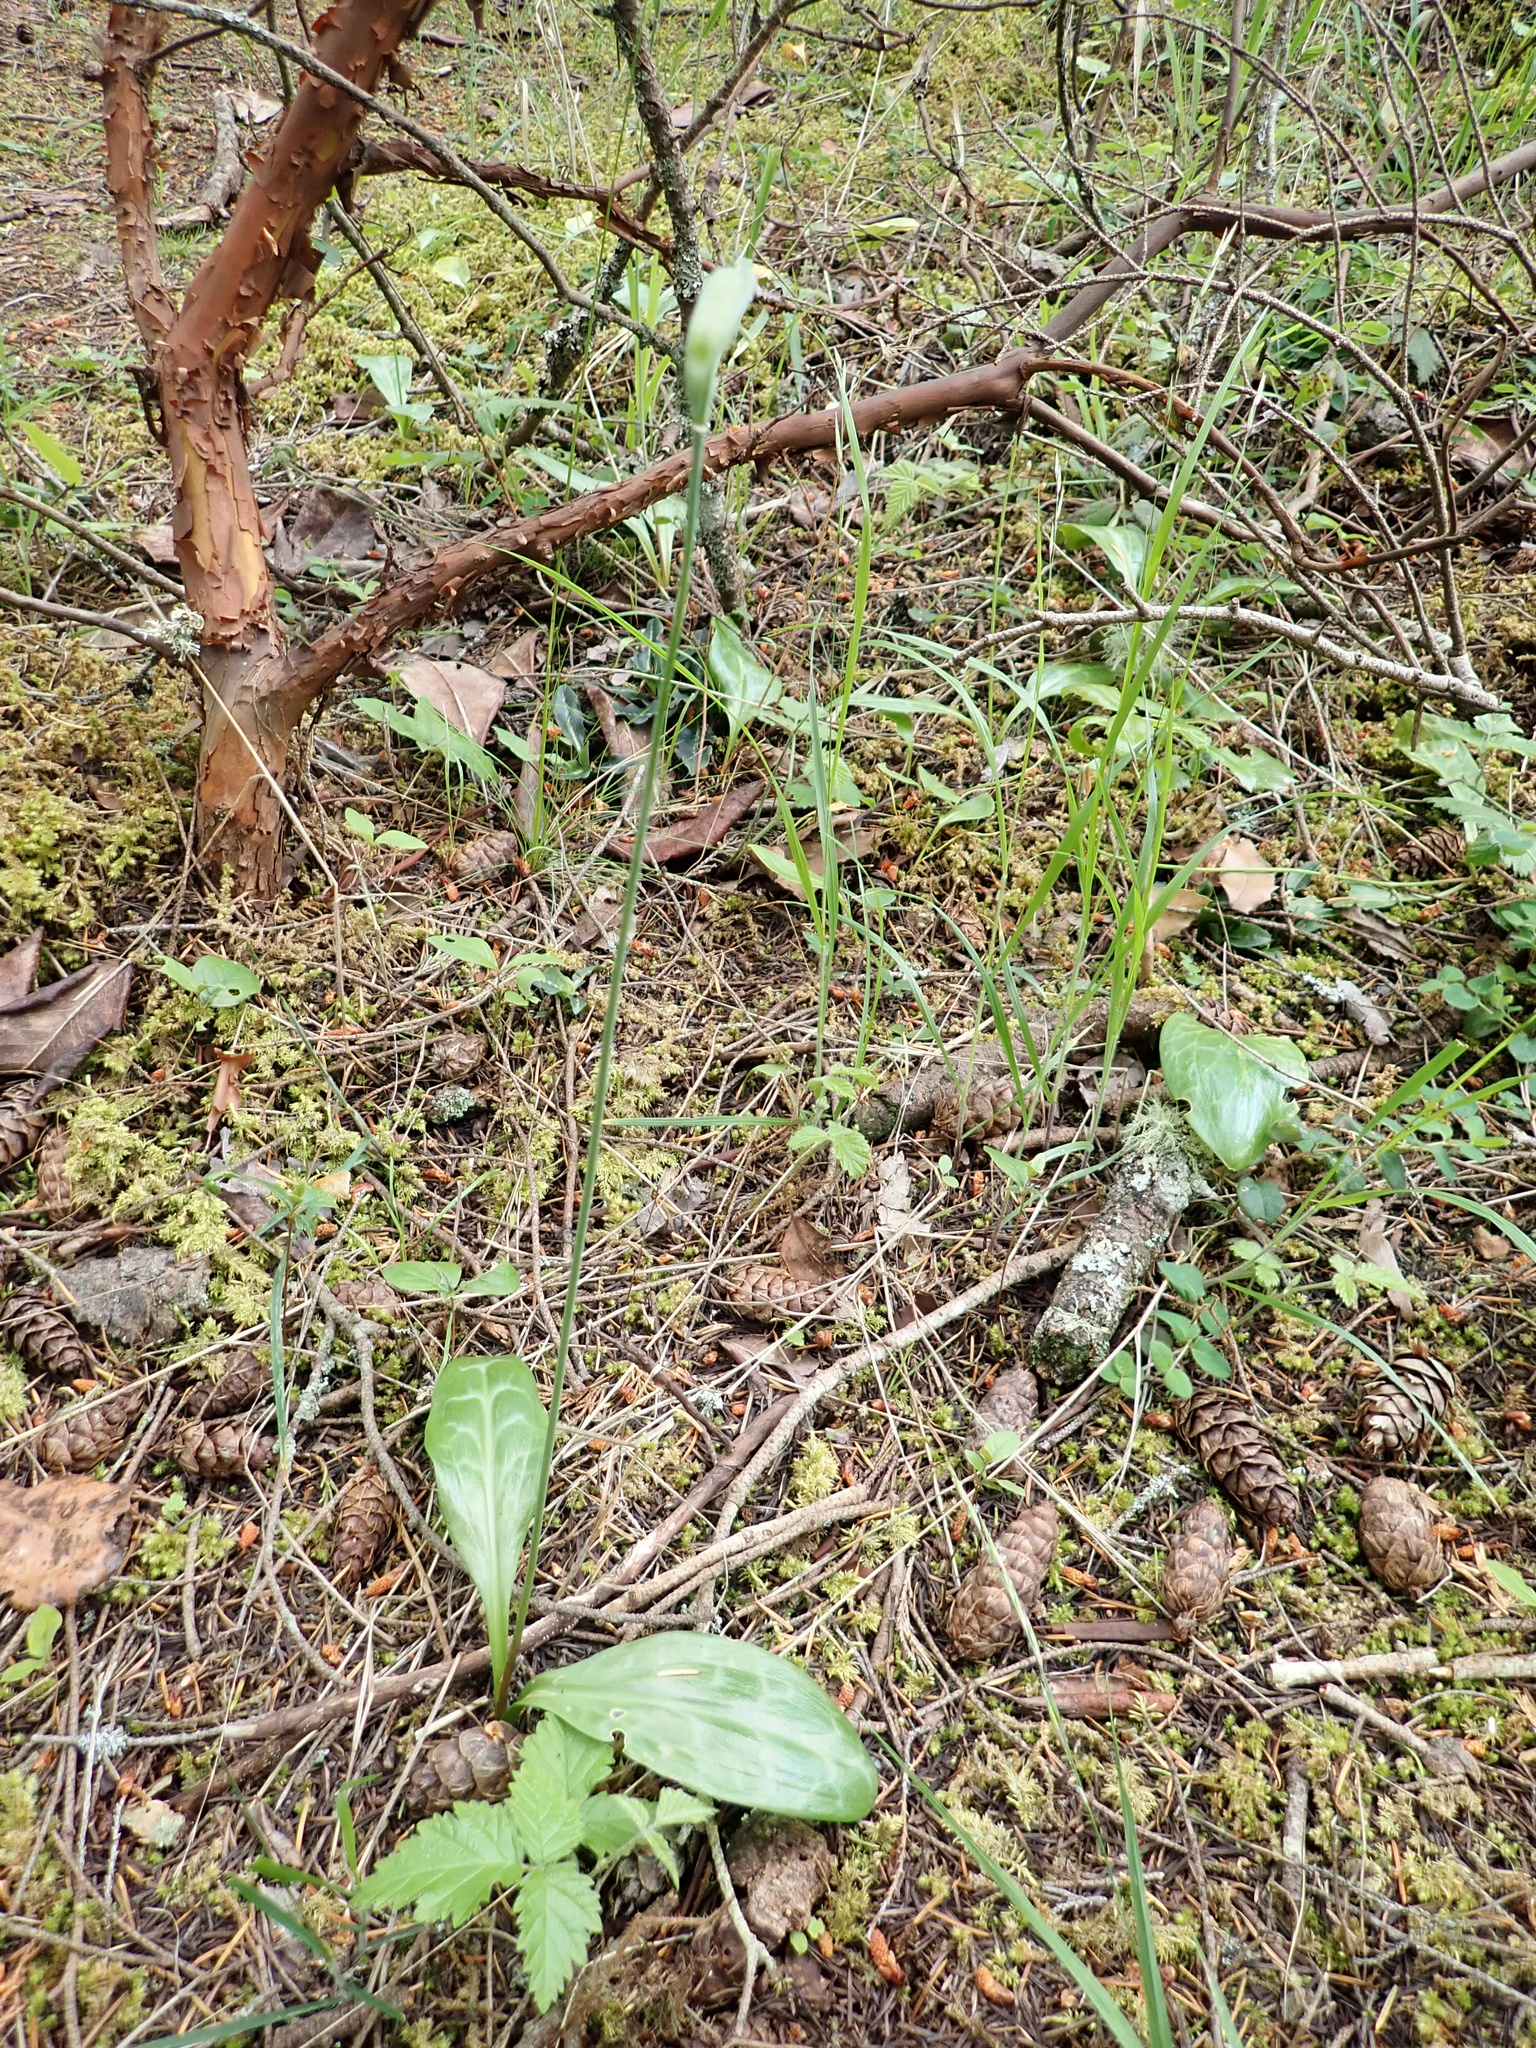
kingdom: Plantae
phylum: Tracheophyta
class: Liliopsida
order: Liliales
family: Liliaceae
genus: Erythronium
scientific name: Erythronium oregonum
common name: Giant adder's-tongue
